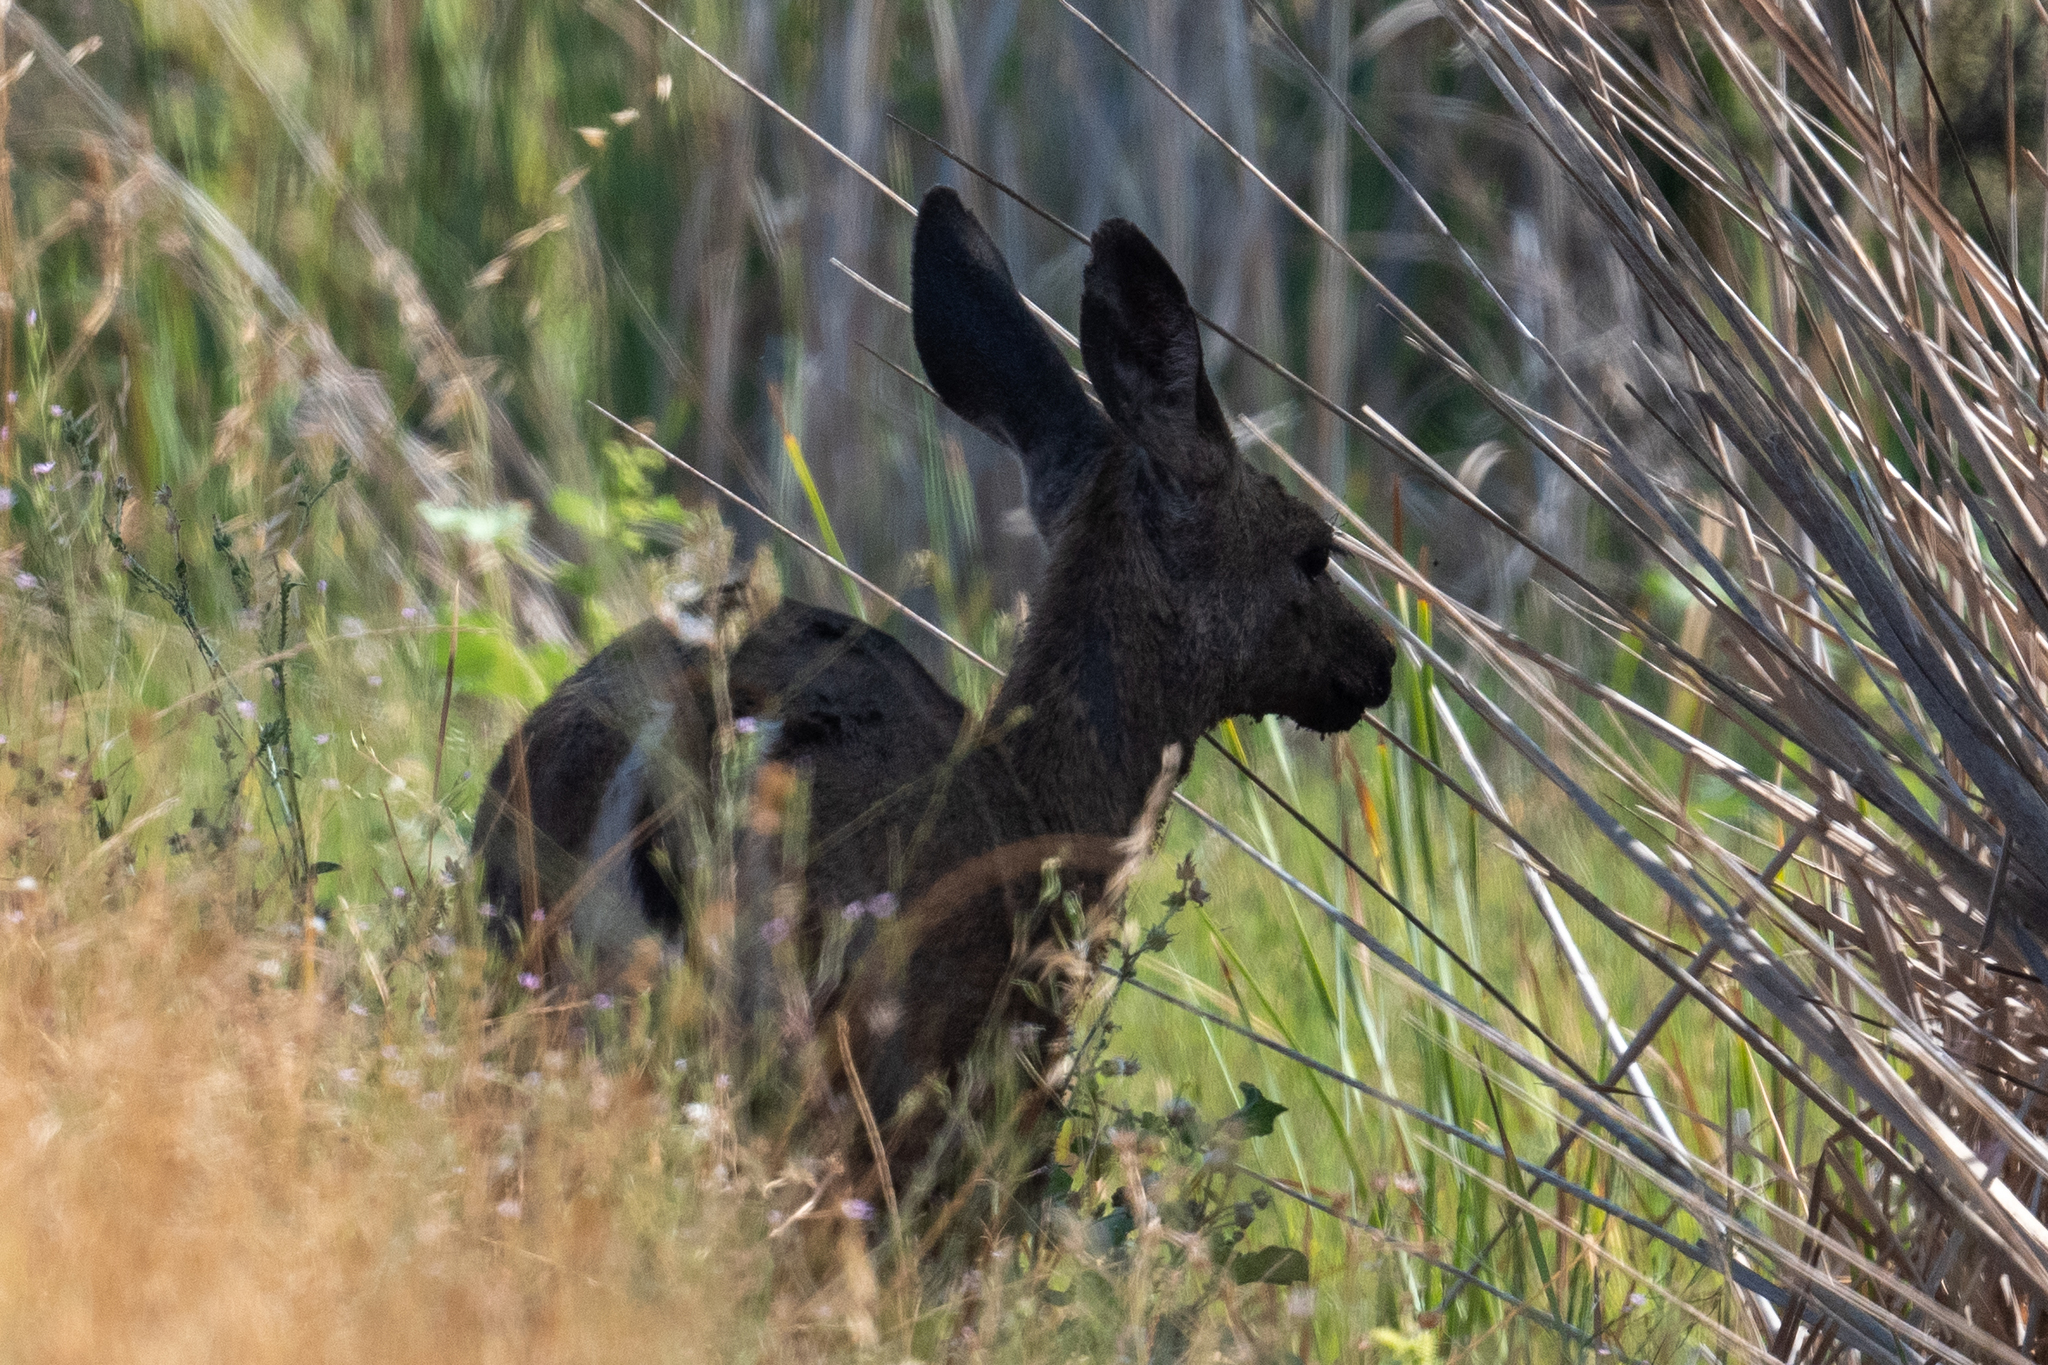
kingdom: Animalia
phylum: Chordata
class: Mammalia
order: Artiodactyla
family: Cervidae
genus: Odocoileus
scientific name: Odocoileus hemionus
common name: Mule deer
